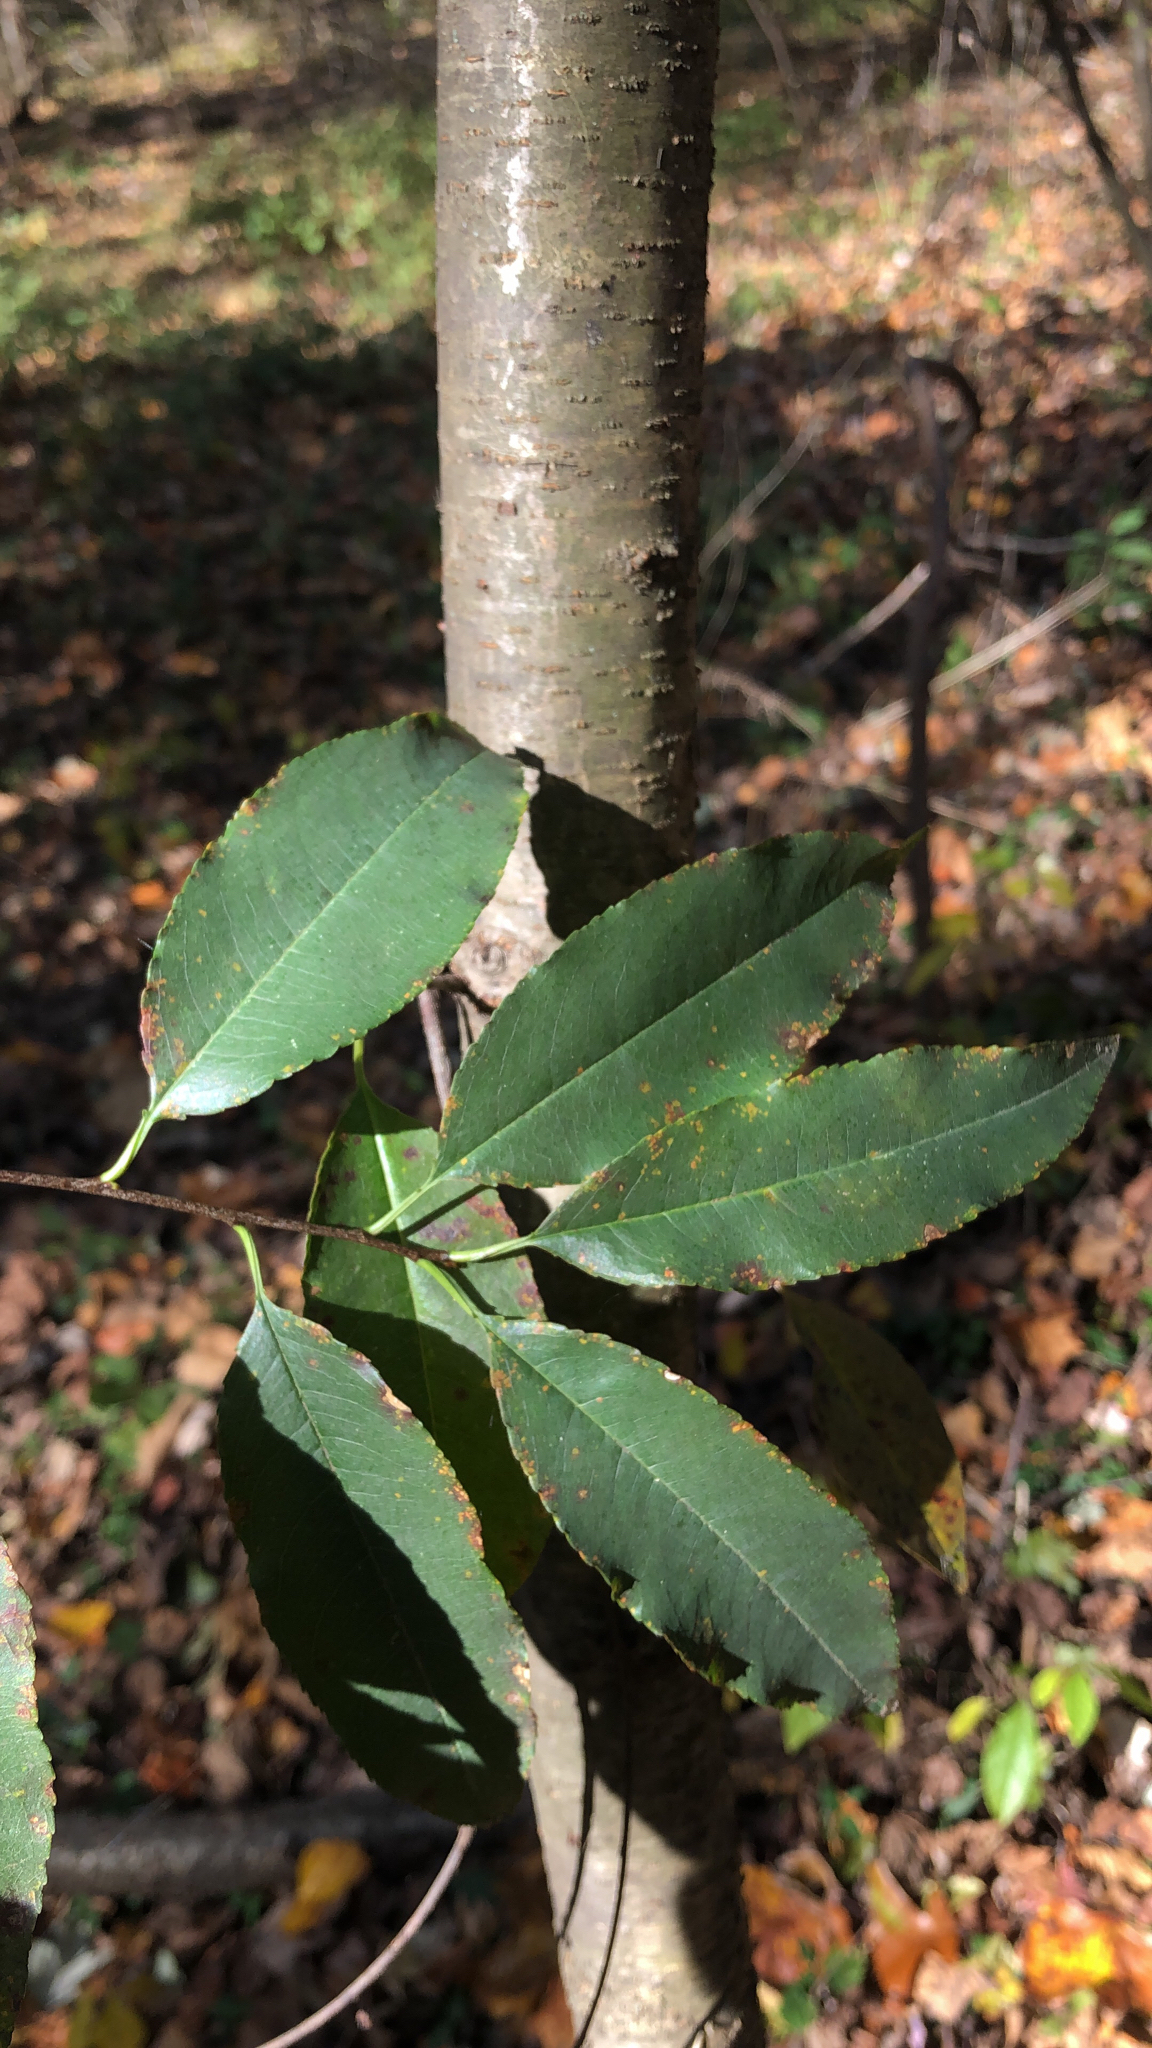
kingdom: Plantae
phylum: Tracheophyta
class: Magnoliopsida
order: Rosales
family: Rosaceae
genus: Prunus
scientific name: Prunus serotina
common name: Black cherry
